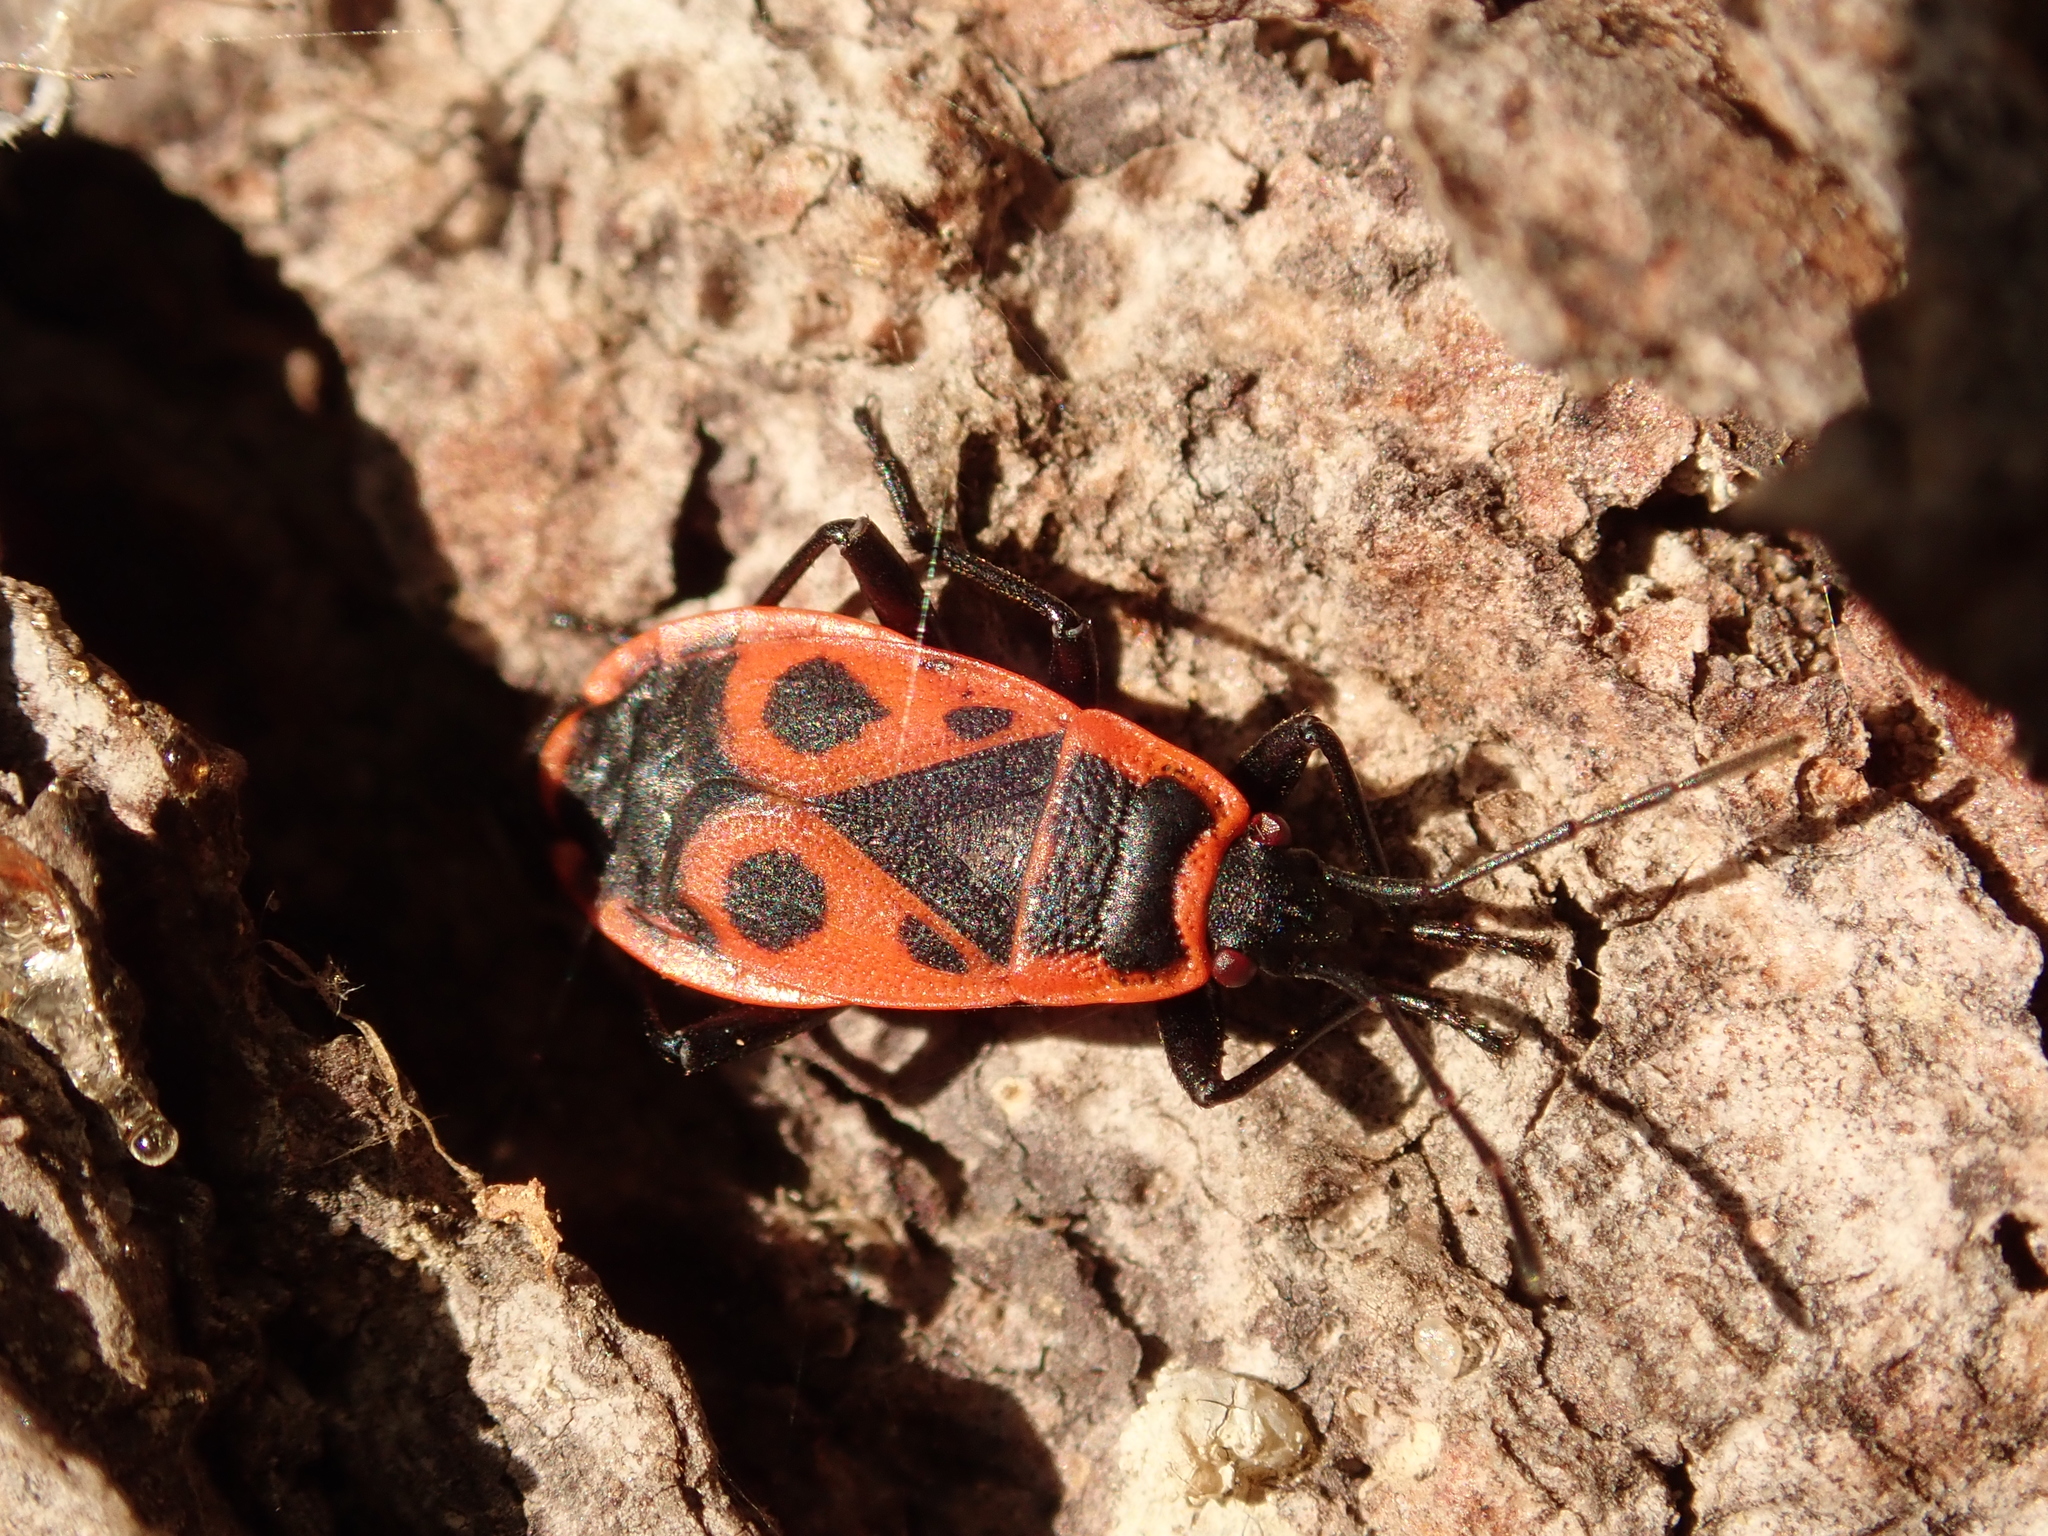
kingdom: Animalia
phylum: Arthropoda
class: Insecta
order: Hemiptera
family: Pyrrhocoridae
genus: Pyrrhocoris
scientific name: Pyrrhocoris apterus
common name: Firebug
